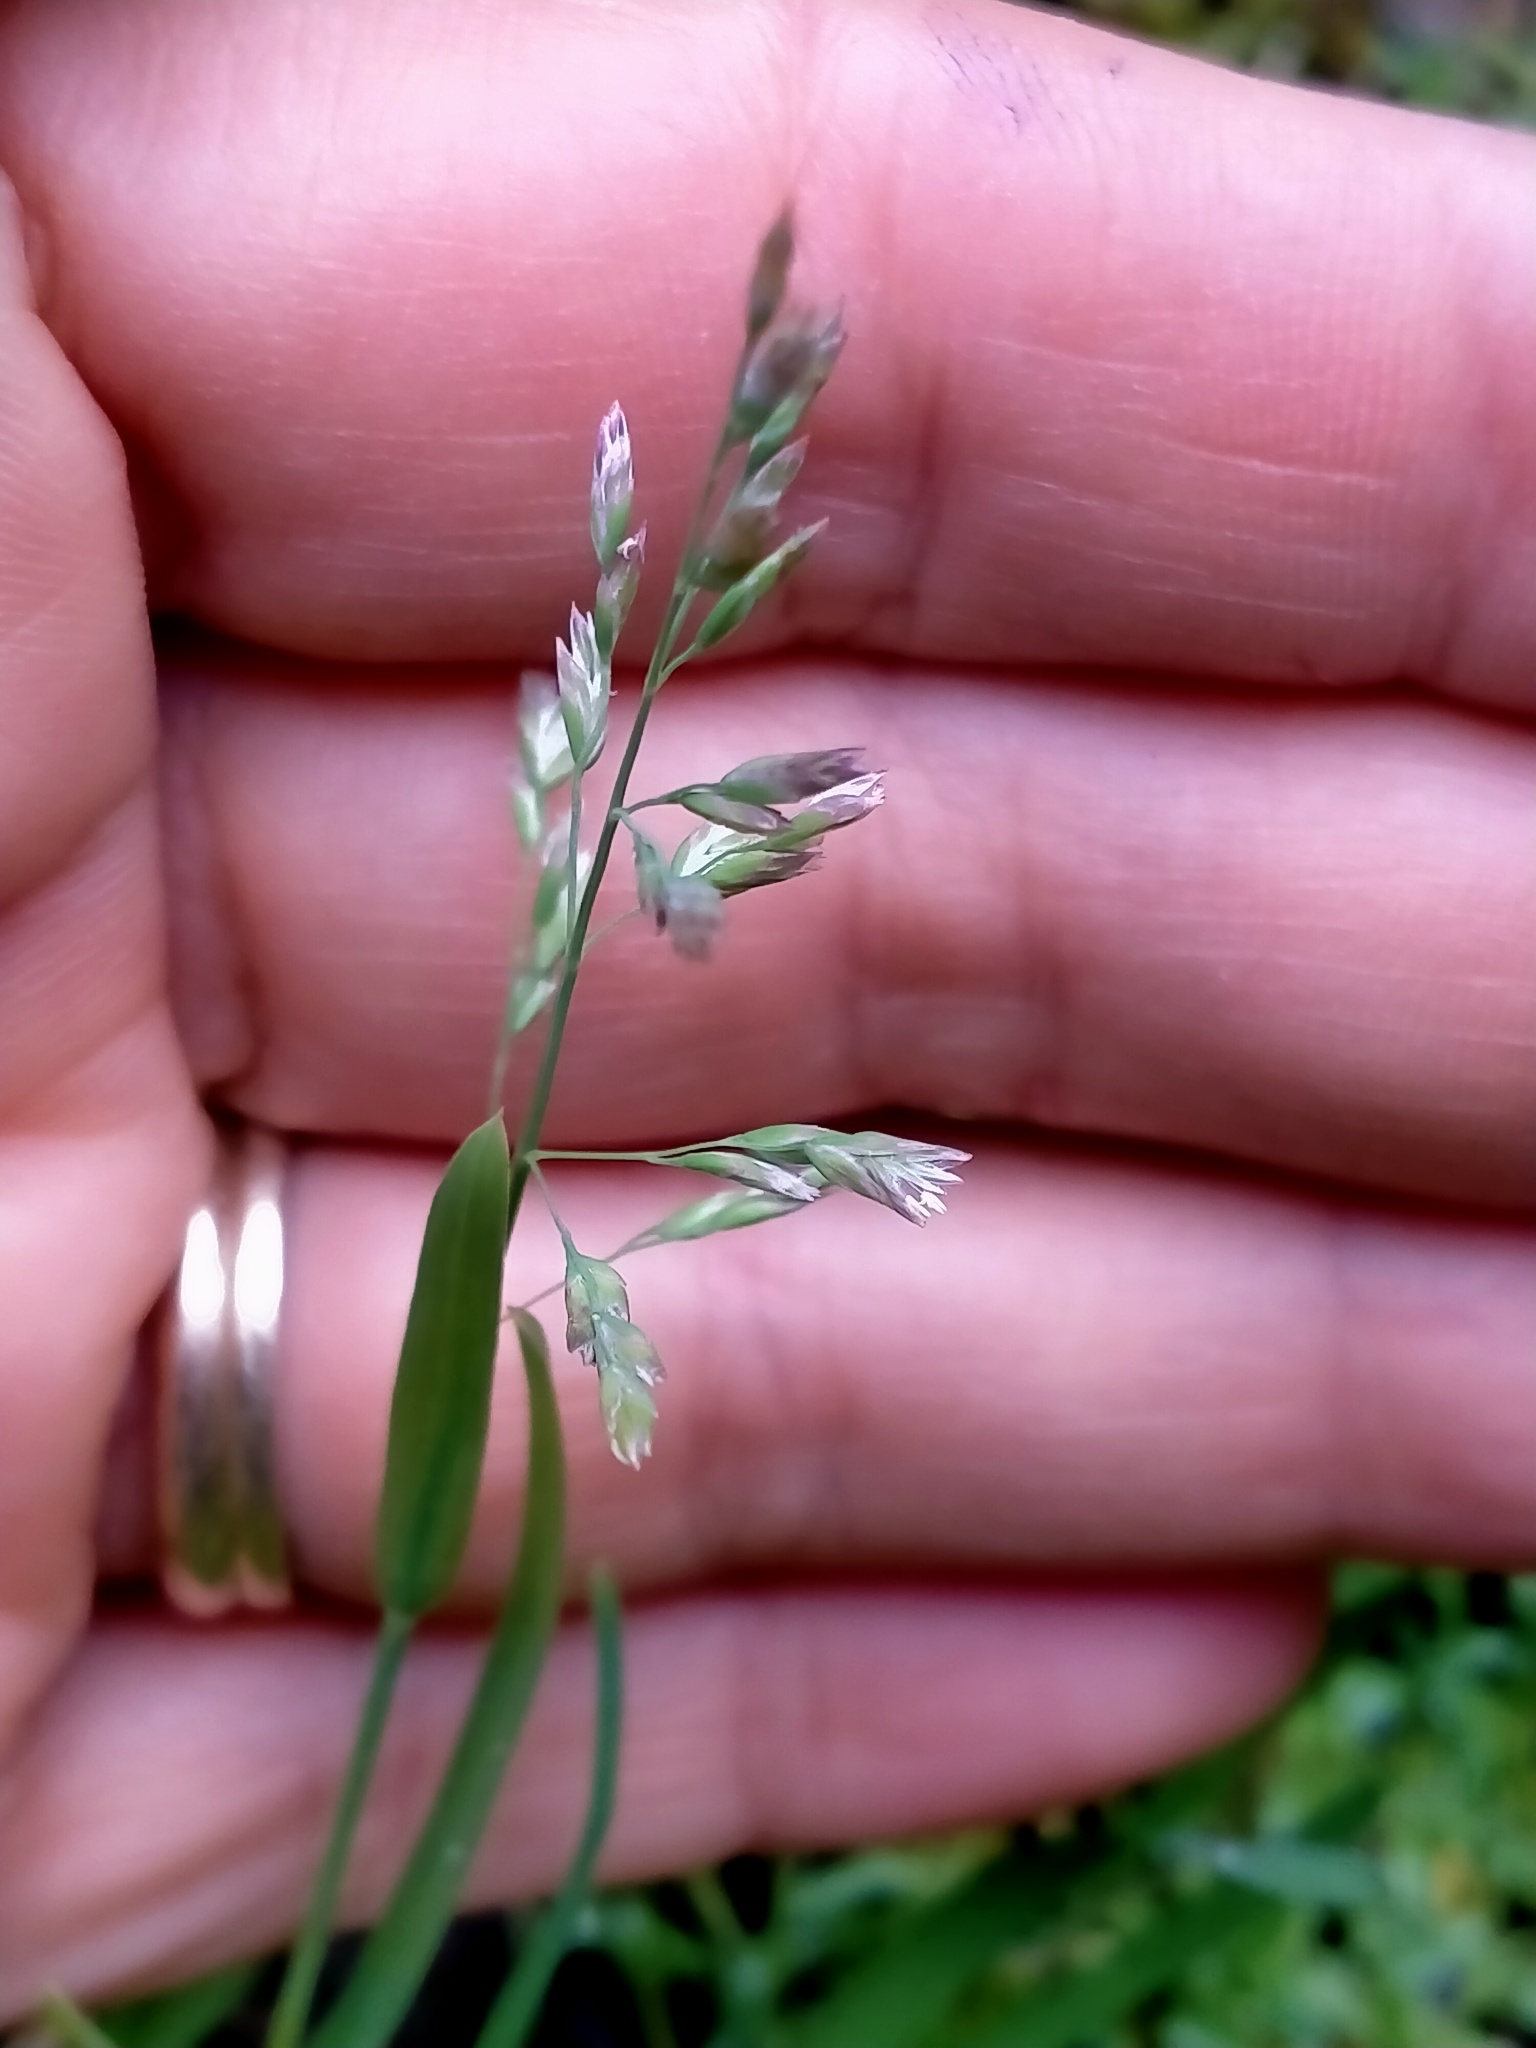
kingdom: Plantae
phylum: Tracheophyta
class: Liliopsida
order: Poales
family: Poaceae
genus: Poa
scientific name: Poa annua
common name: Annual bluegrass
